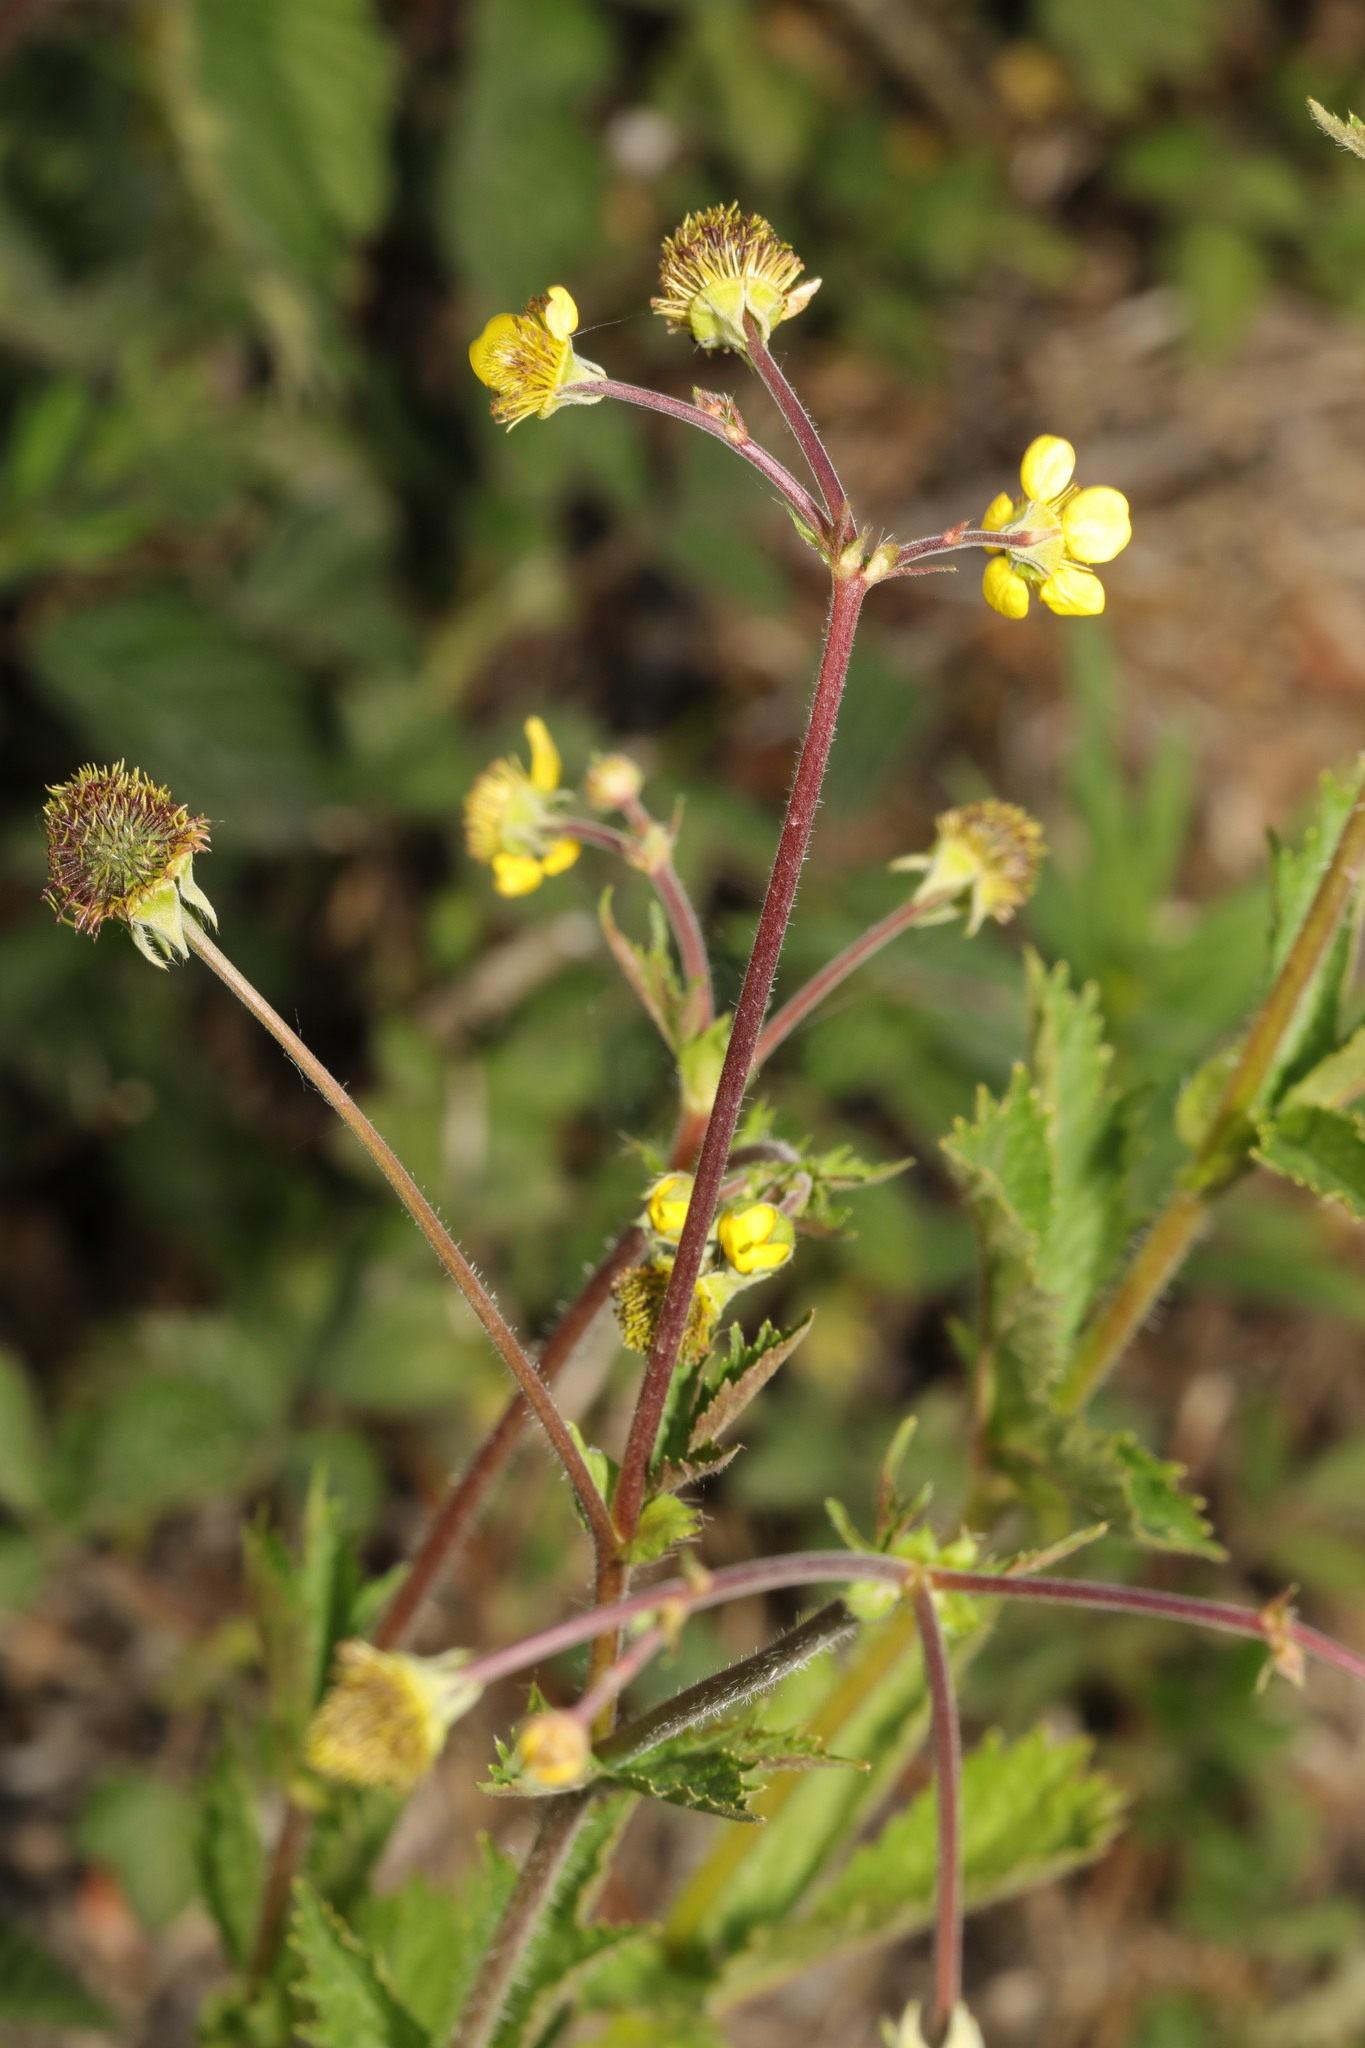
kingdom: Plantae
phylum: Tracheophyta
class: Magnoliopsida
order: Rosales
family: Rosaceae
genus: Geum
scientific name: Geum urbanum
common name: Wood avens
